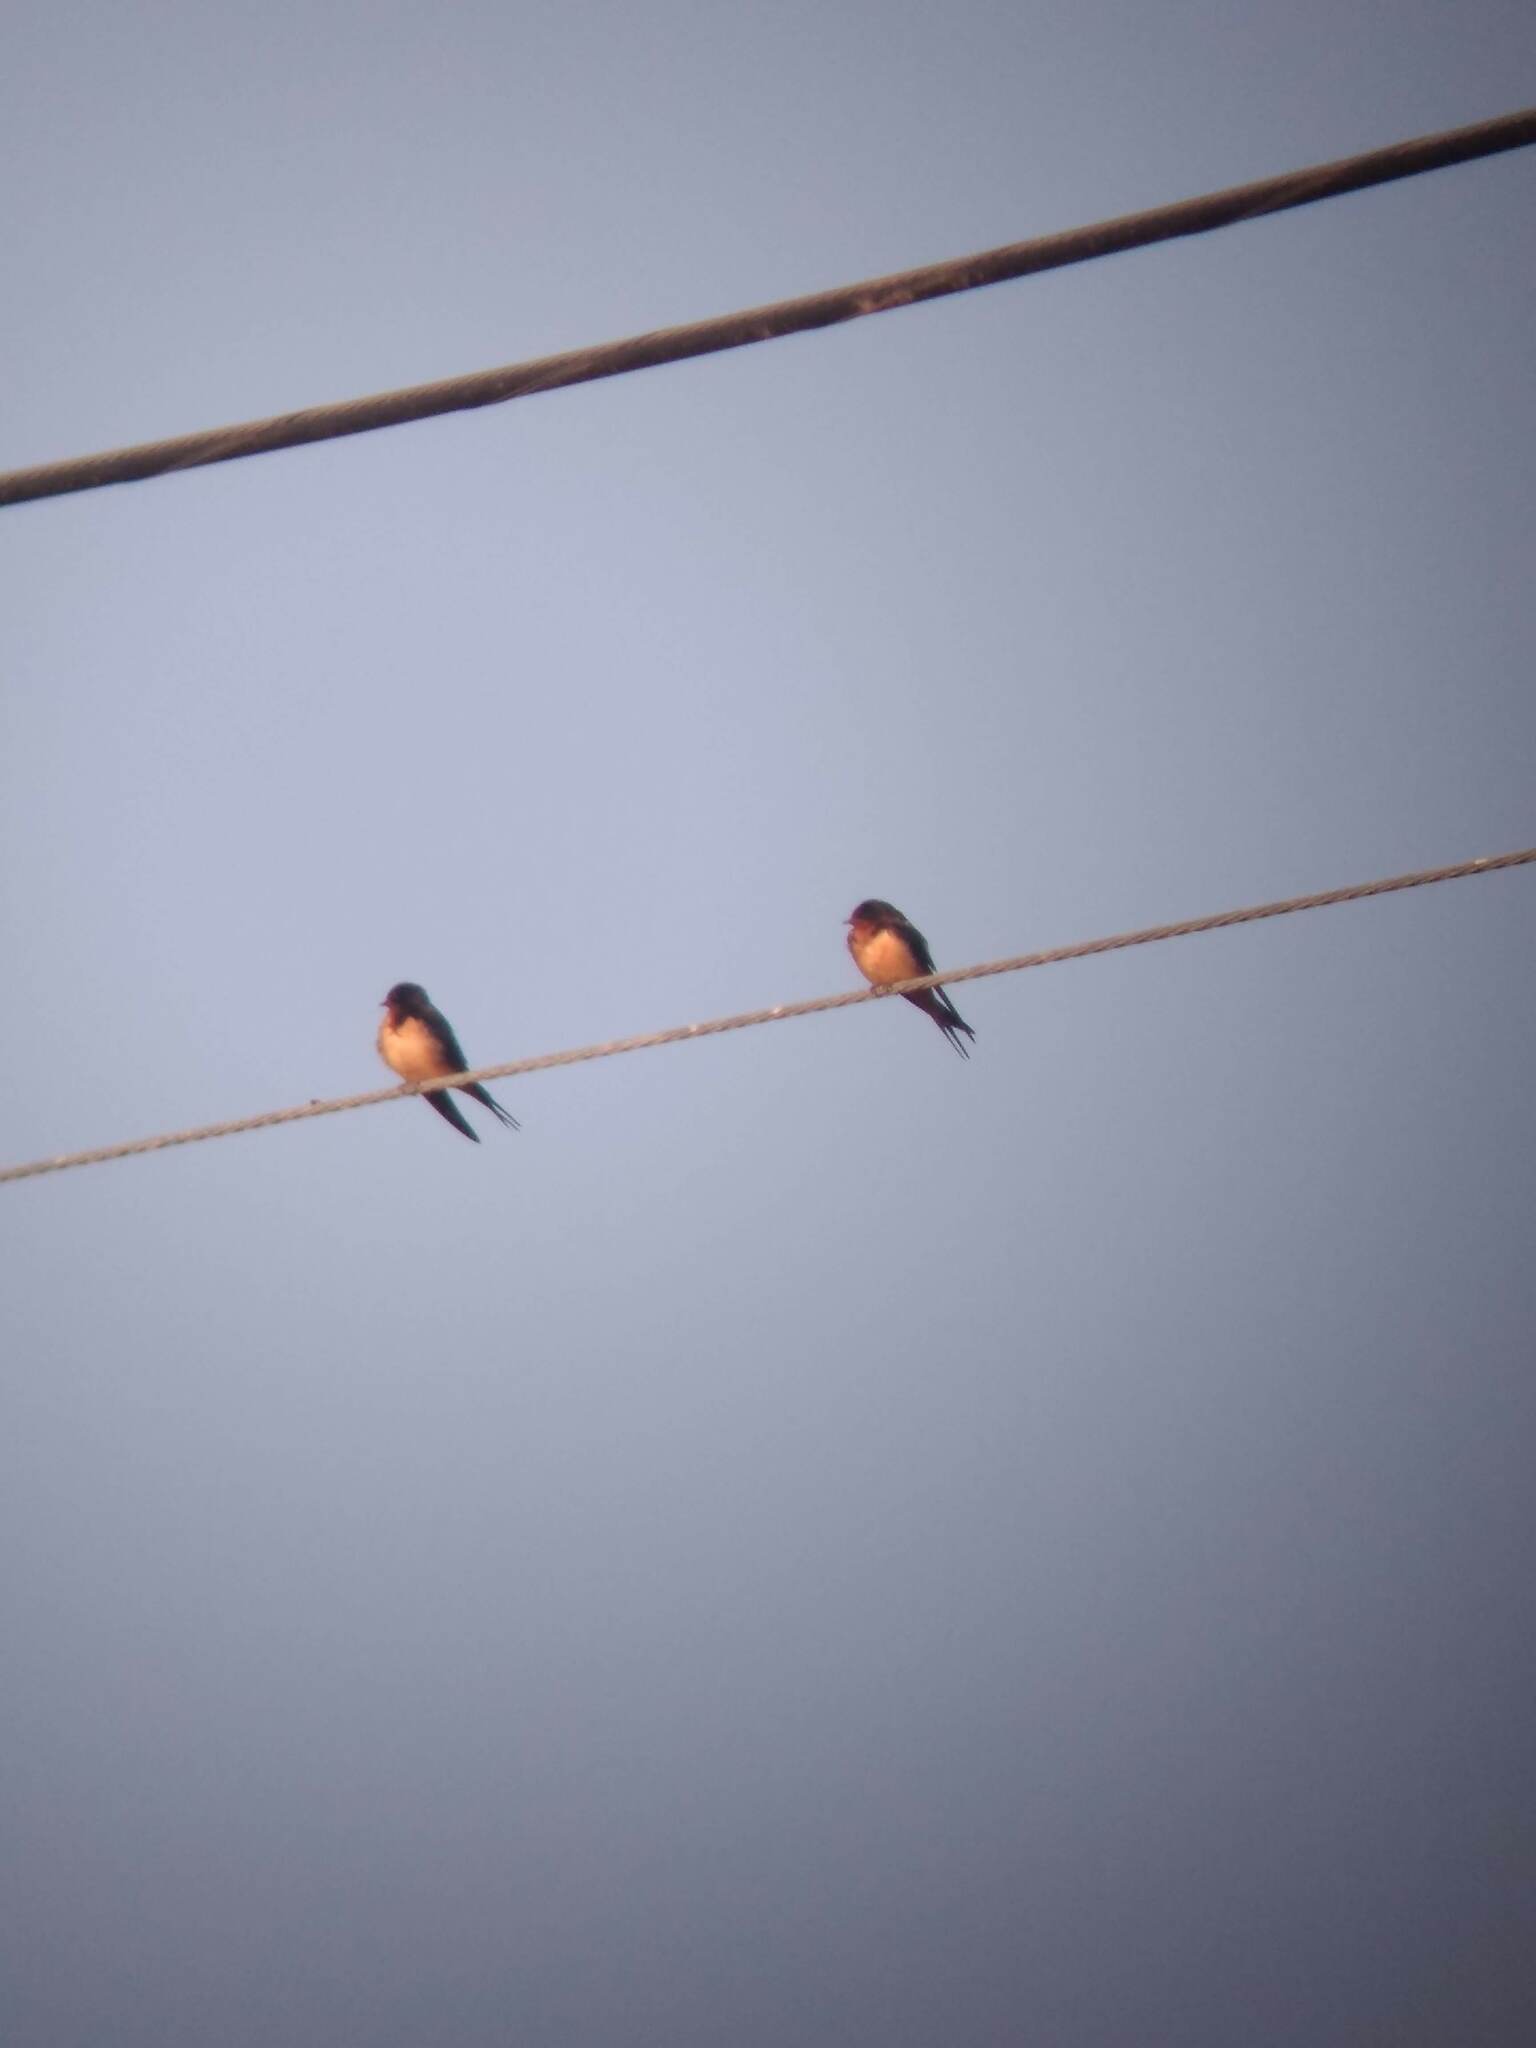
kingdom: Animalia
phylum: Chordata
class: Aves
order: Passeriformes
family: Hirundinidae
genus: Hirundo
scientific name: Hirundo rustica
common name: Barn swallow
